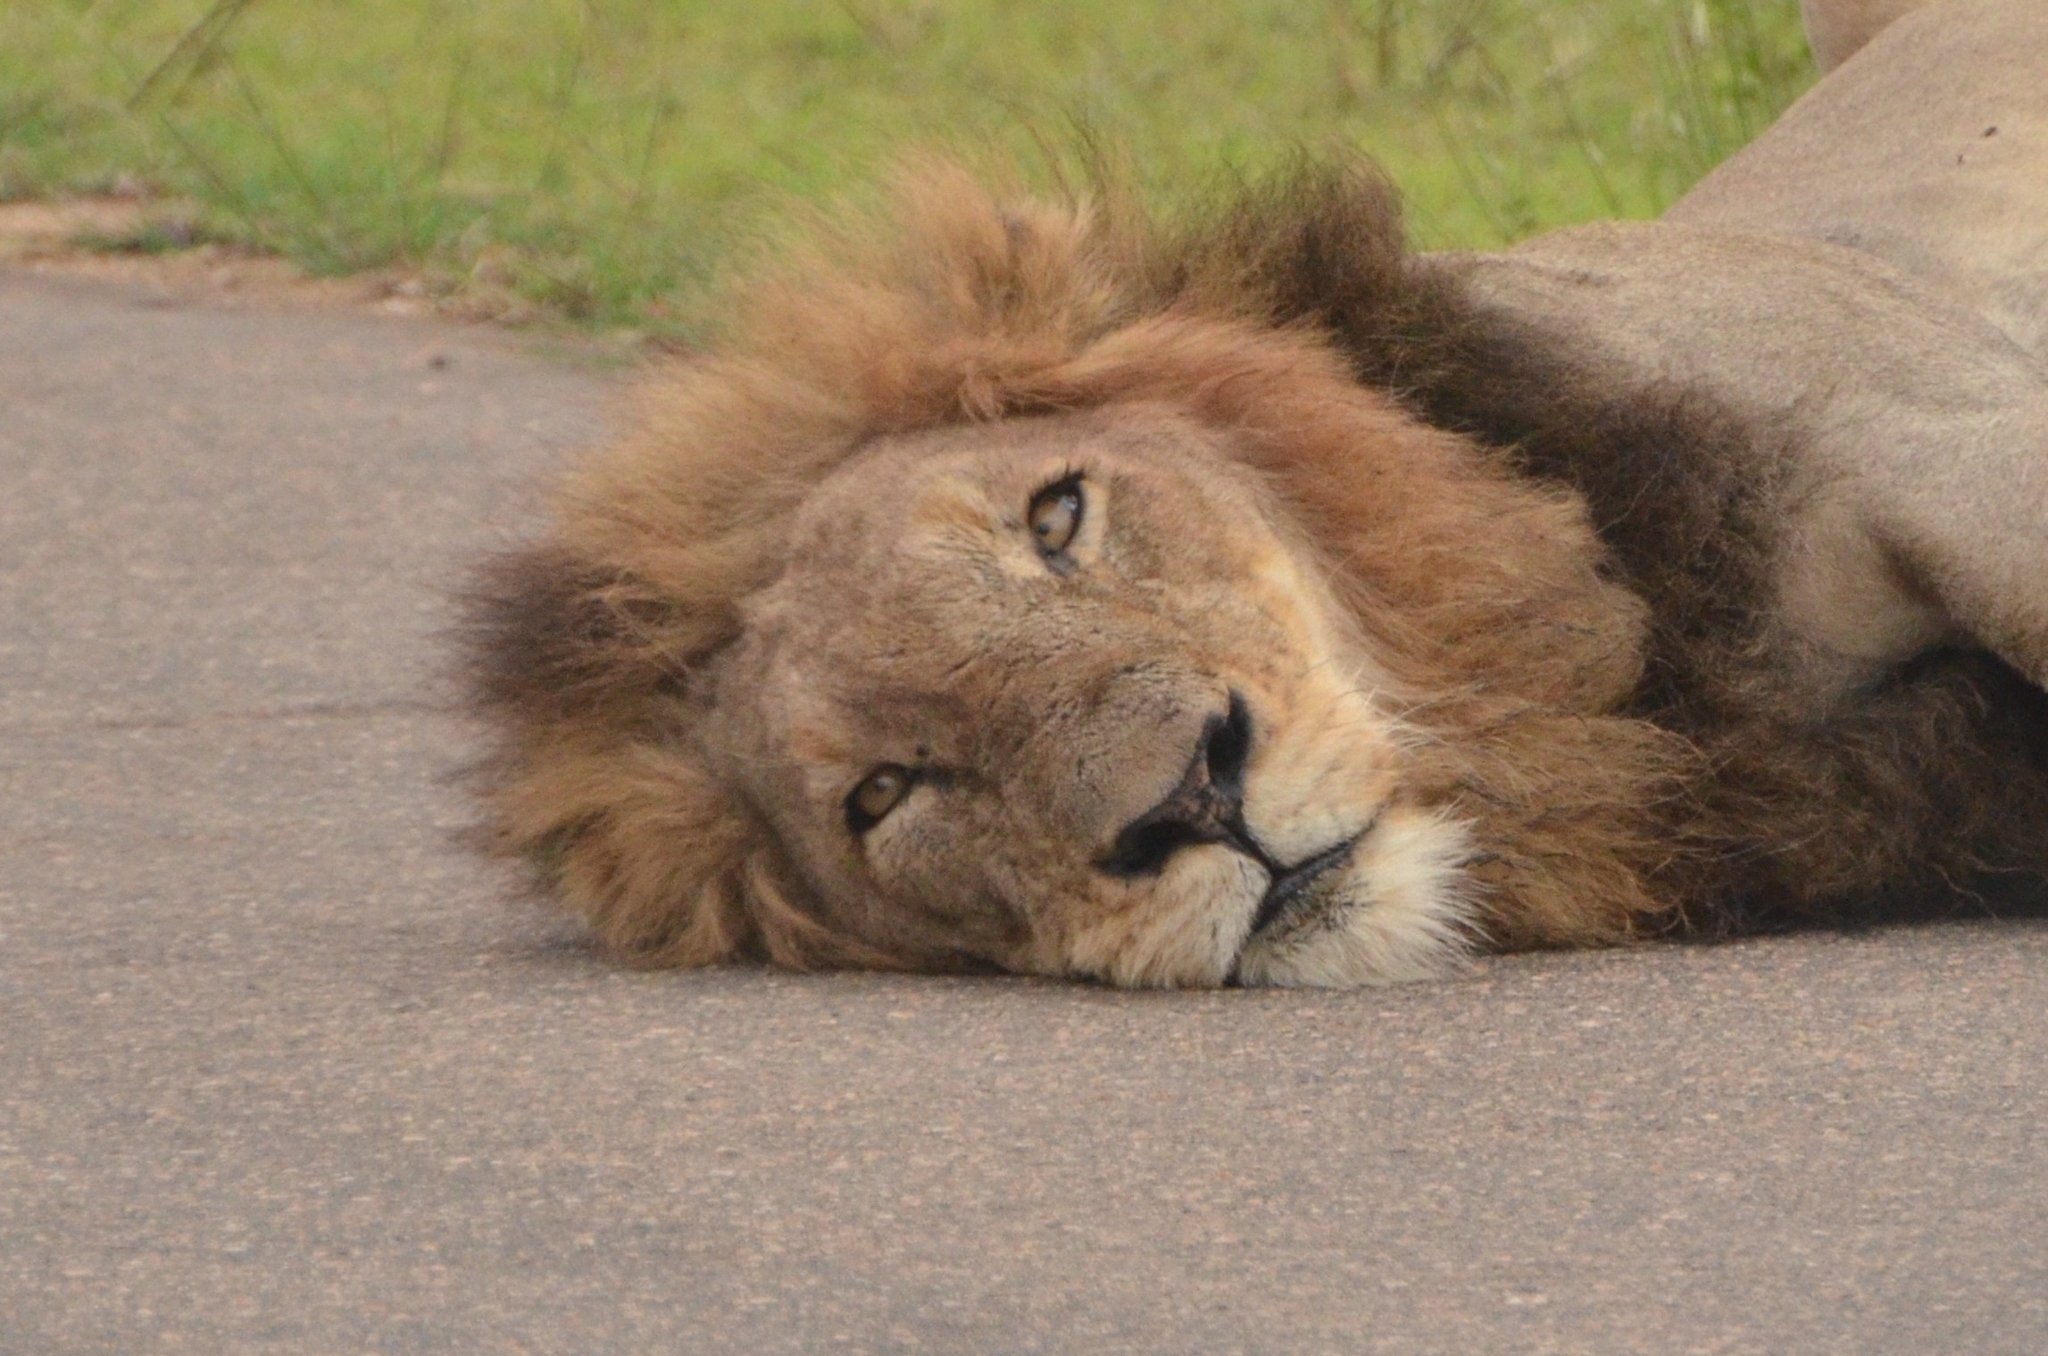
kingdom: Animalia
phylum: Chordata
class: Mammalia
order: Carnivora
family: Felidae
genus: Panthera
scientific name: Panthera leo
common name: Lion
